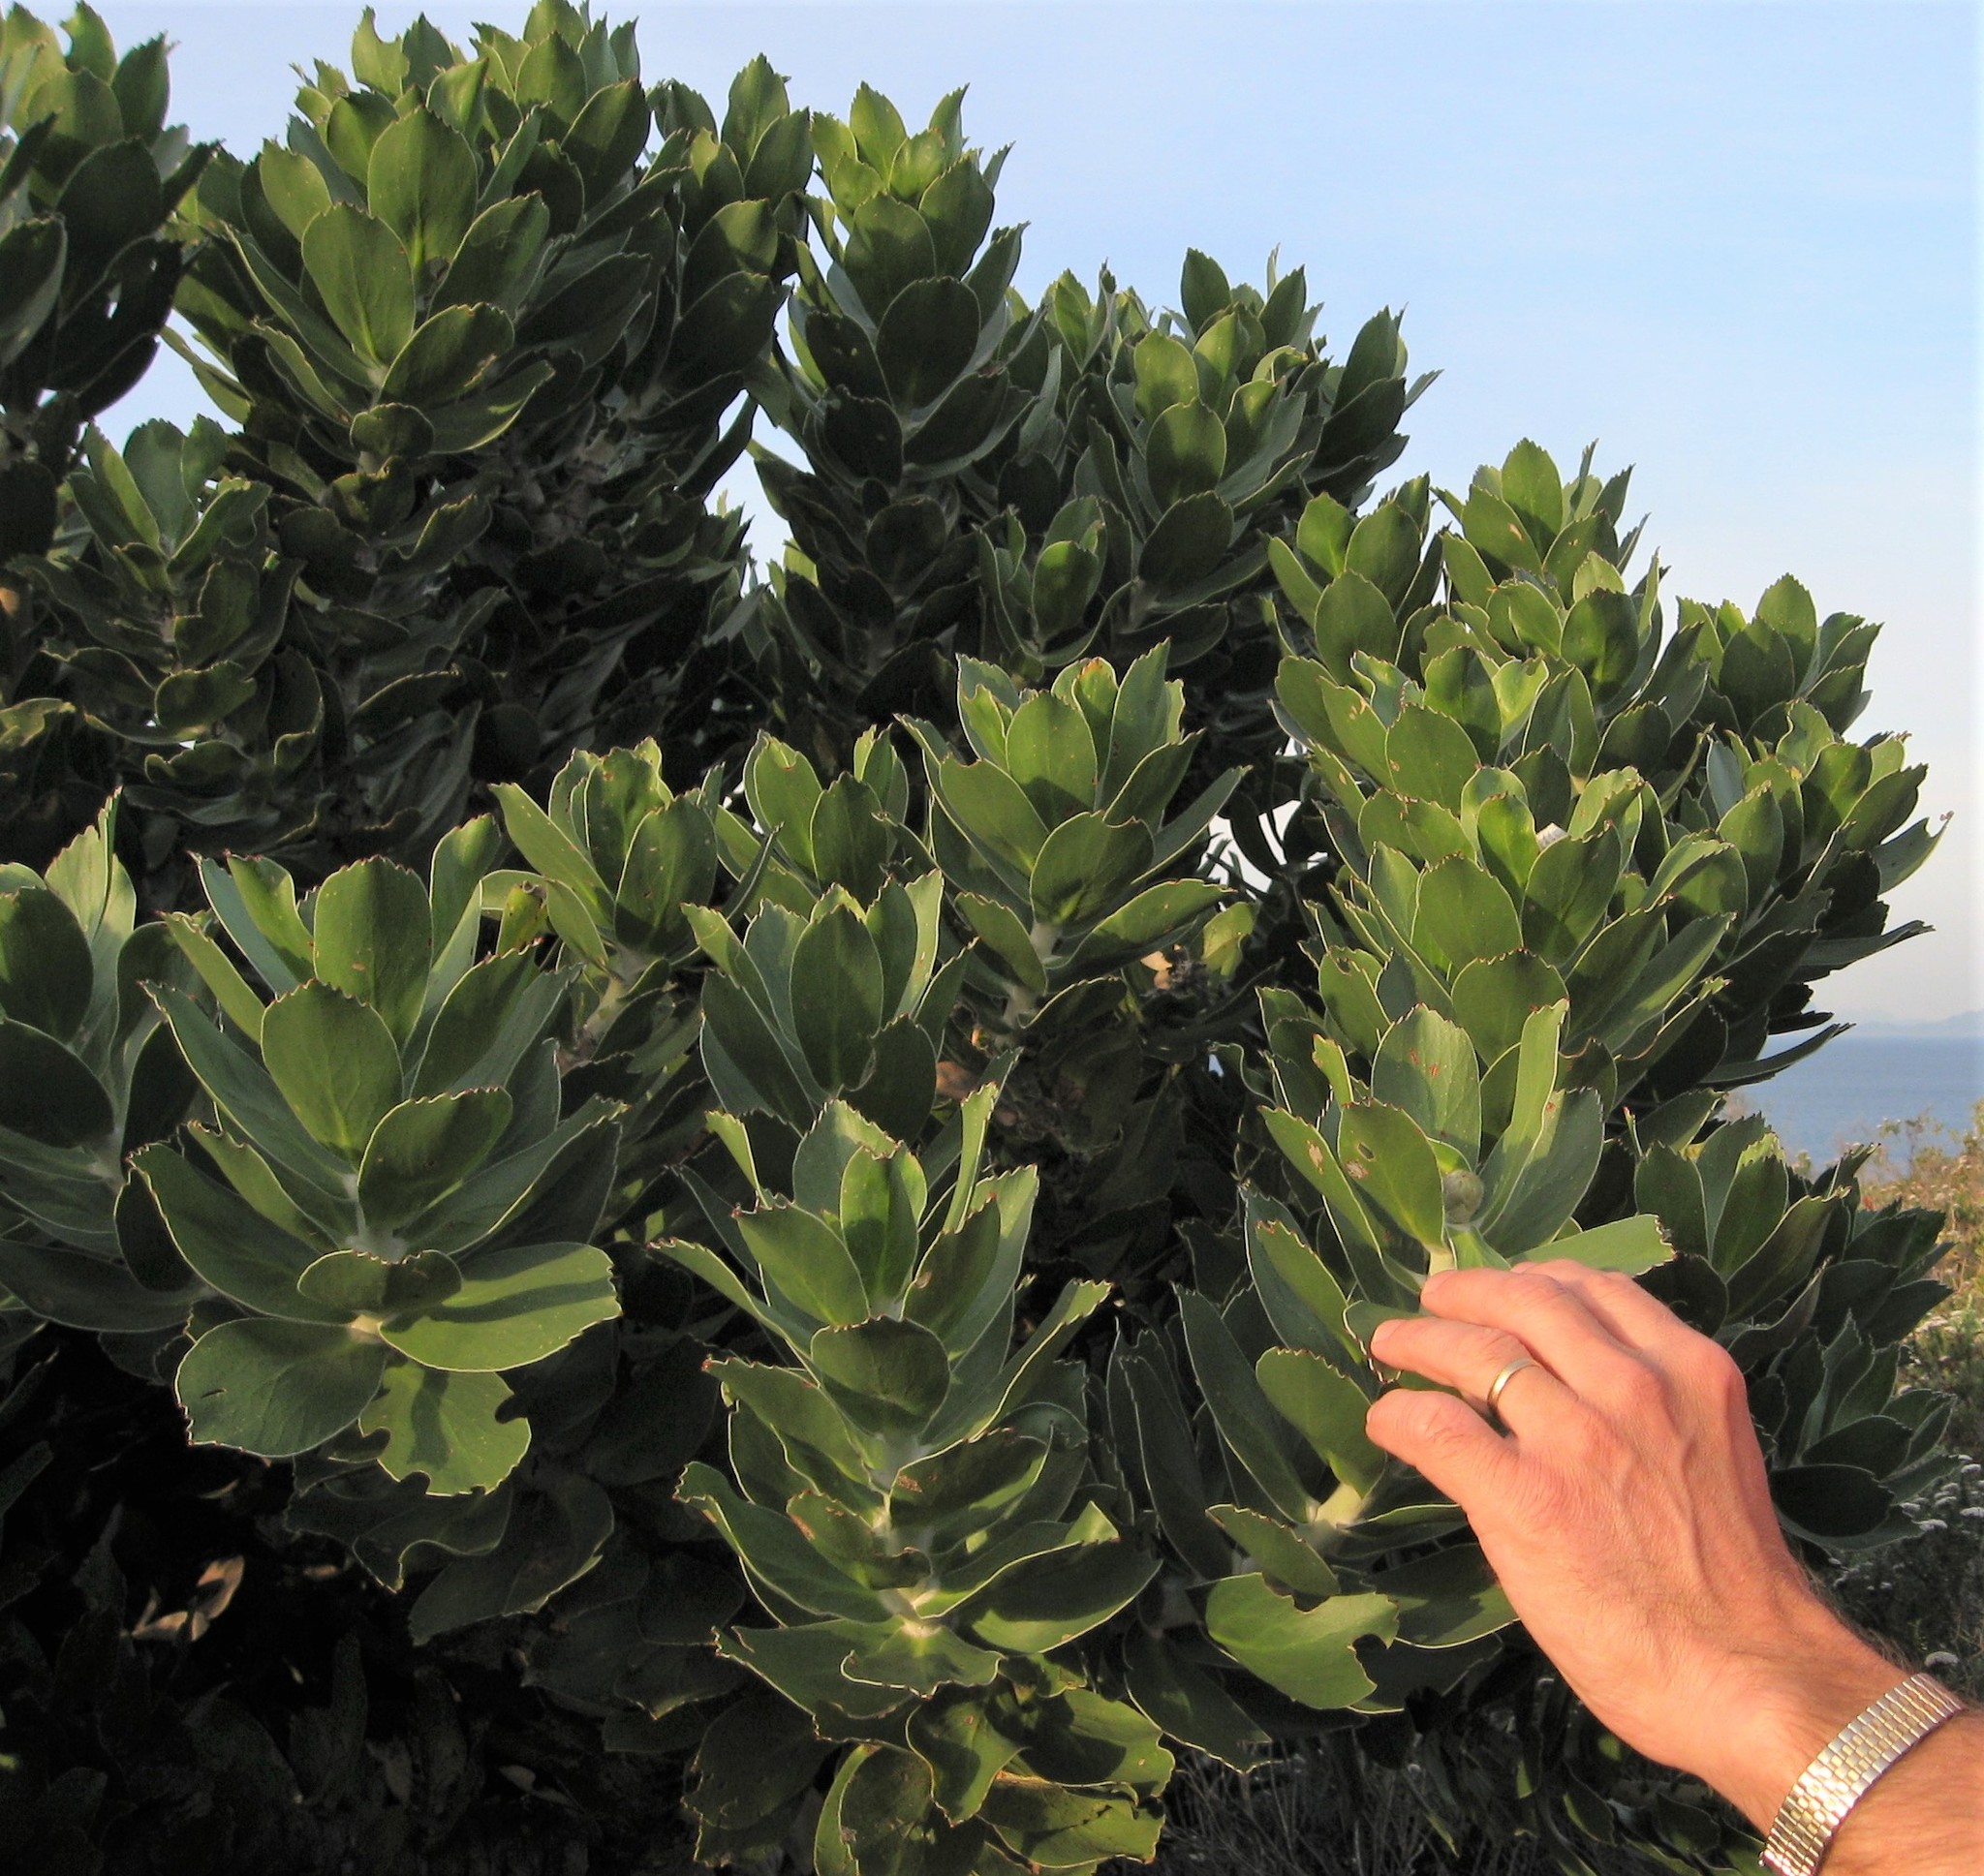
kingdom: Plantae
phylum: Tracheophyta
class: Magnoliopsida
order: Proteales
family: Proteaceae
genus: Leucospermum
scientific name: Leucospermum conocarpodendron
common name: Tree pincushion
